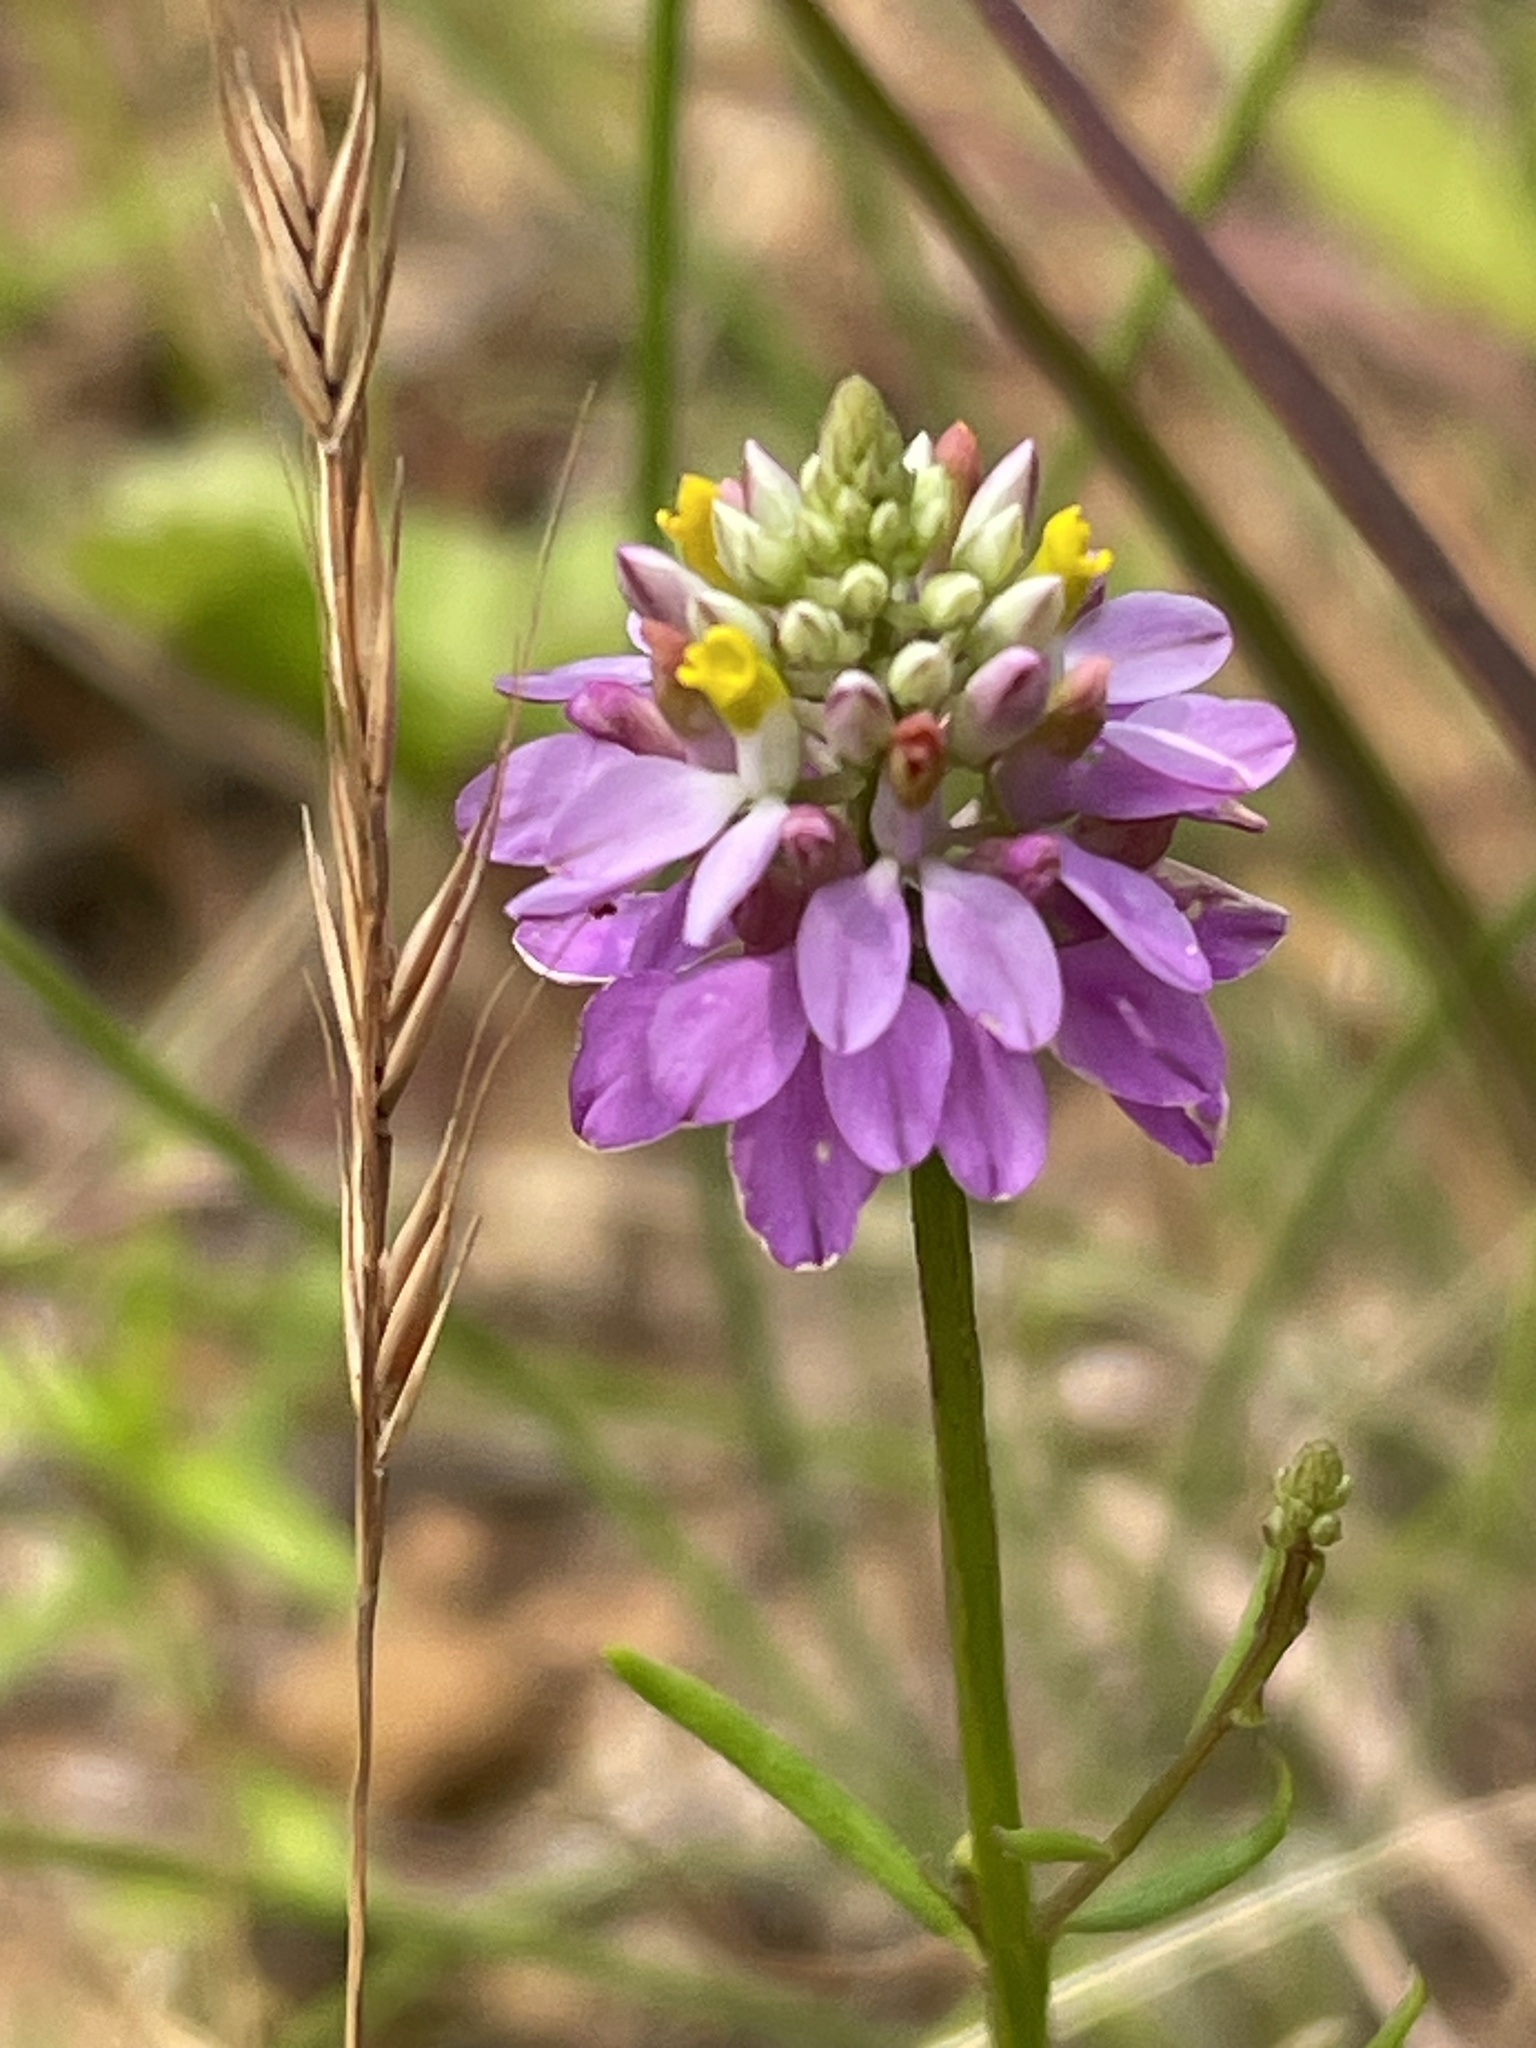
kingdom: Plantae
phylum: Tracheophyta
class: Magnoliopsida
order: Fabales
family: Polygalaceae
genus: Polygala
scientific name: Polygala curtissii
